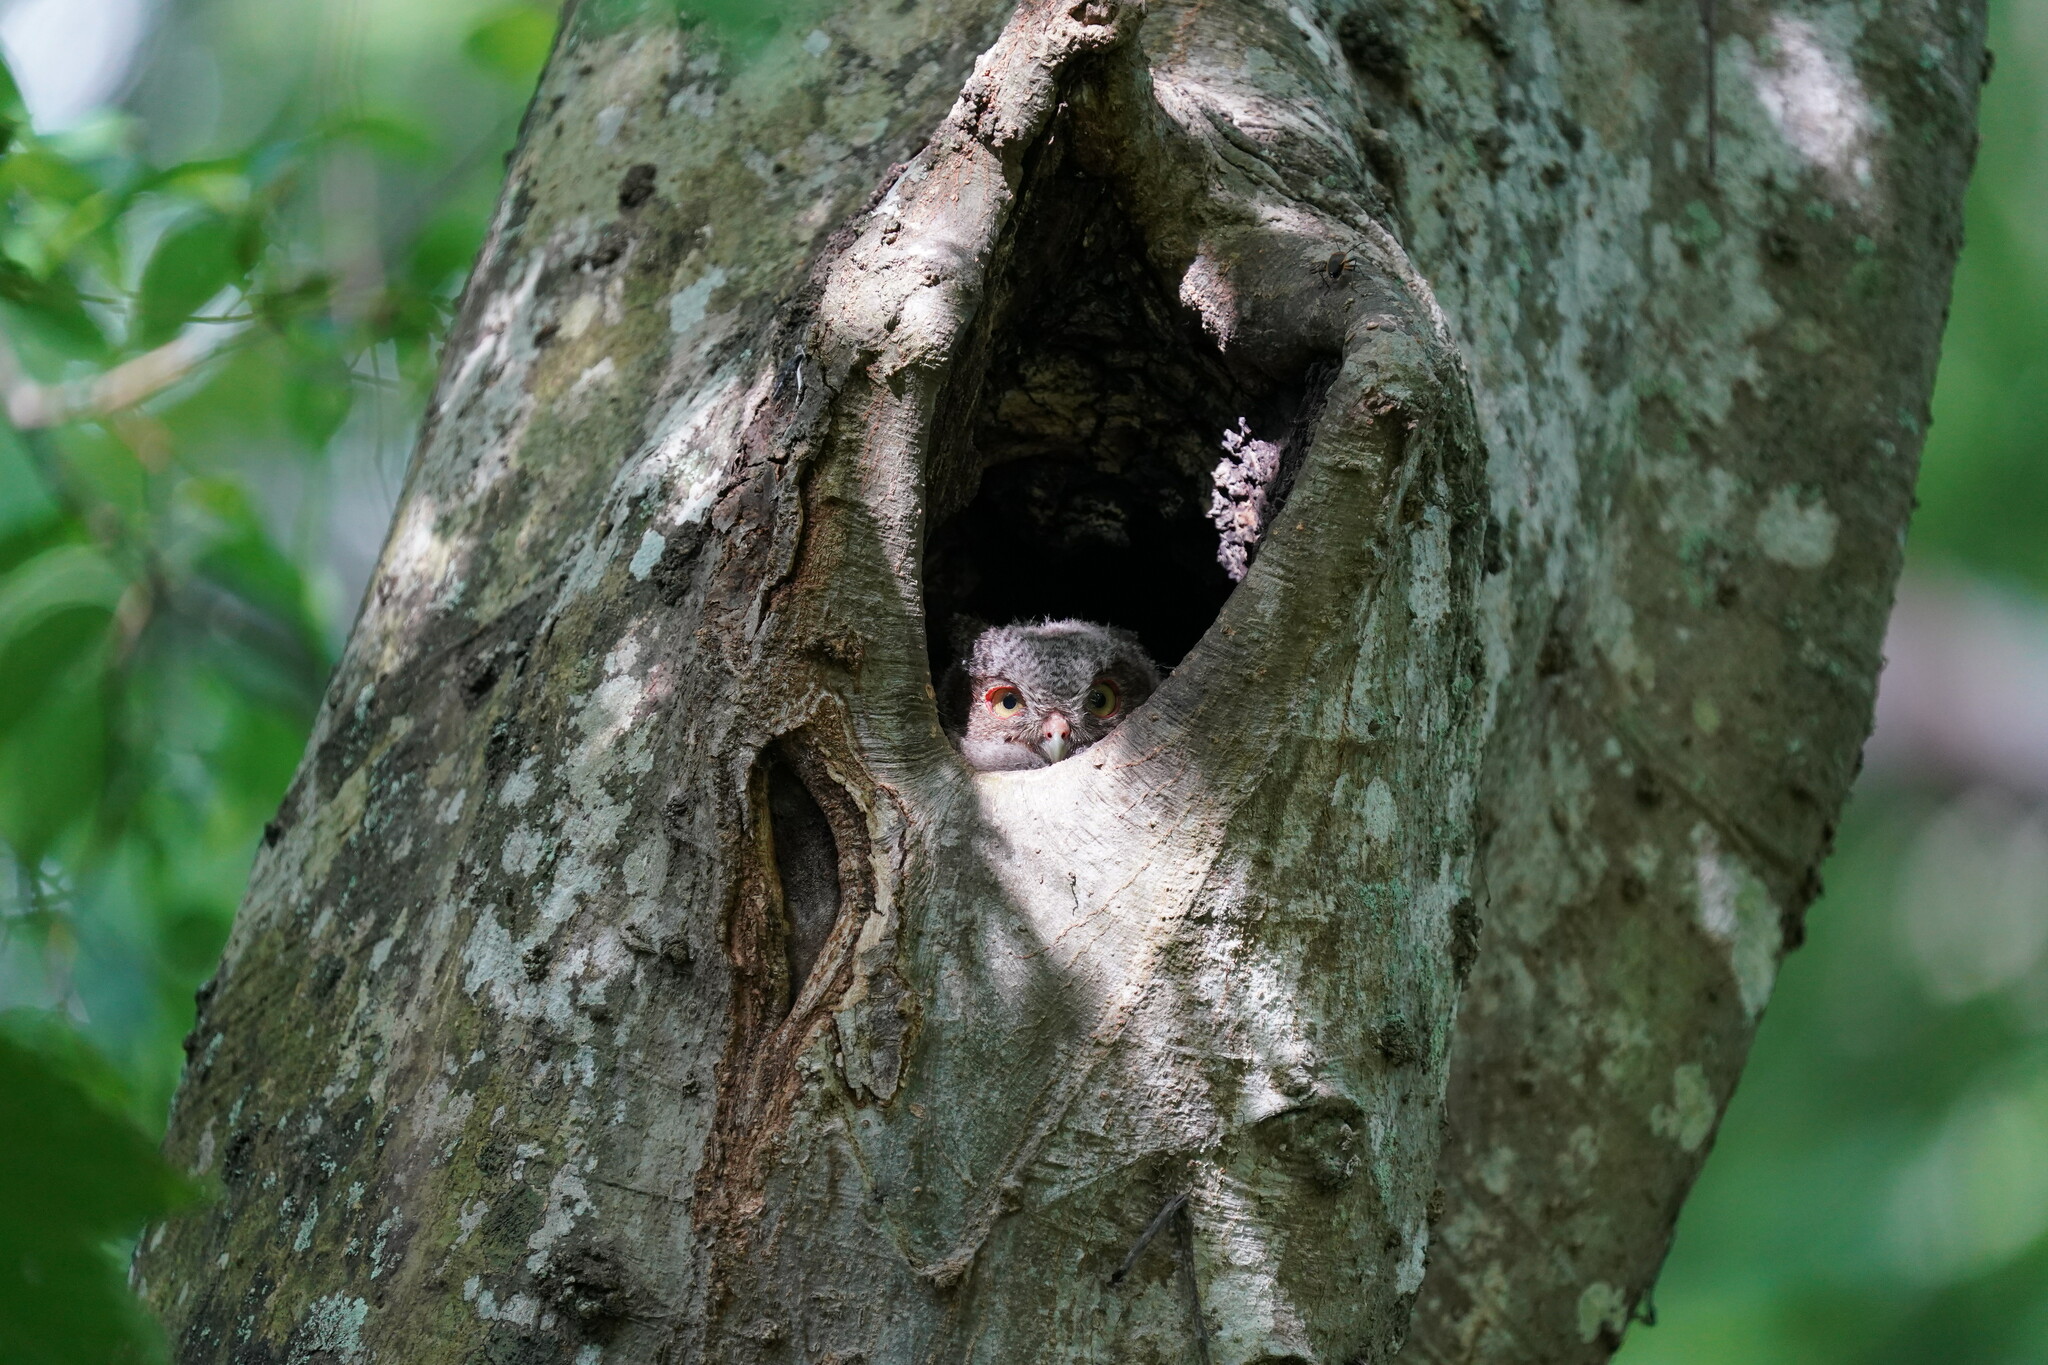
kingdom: Animalia
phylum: Chordata
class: Aves
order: Strigiformes
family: Strigidae
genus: Megascops
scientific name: Megascops asio
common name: Eastern screech-owl
